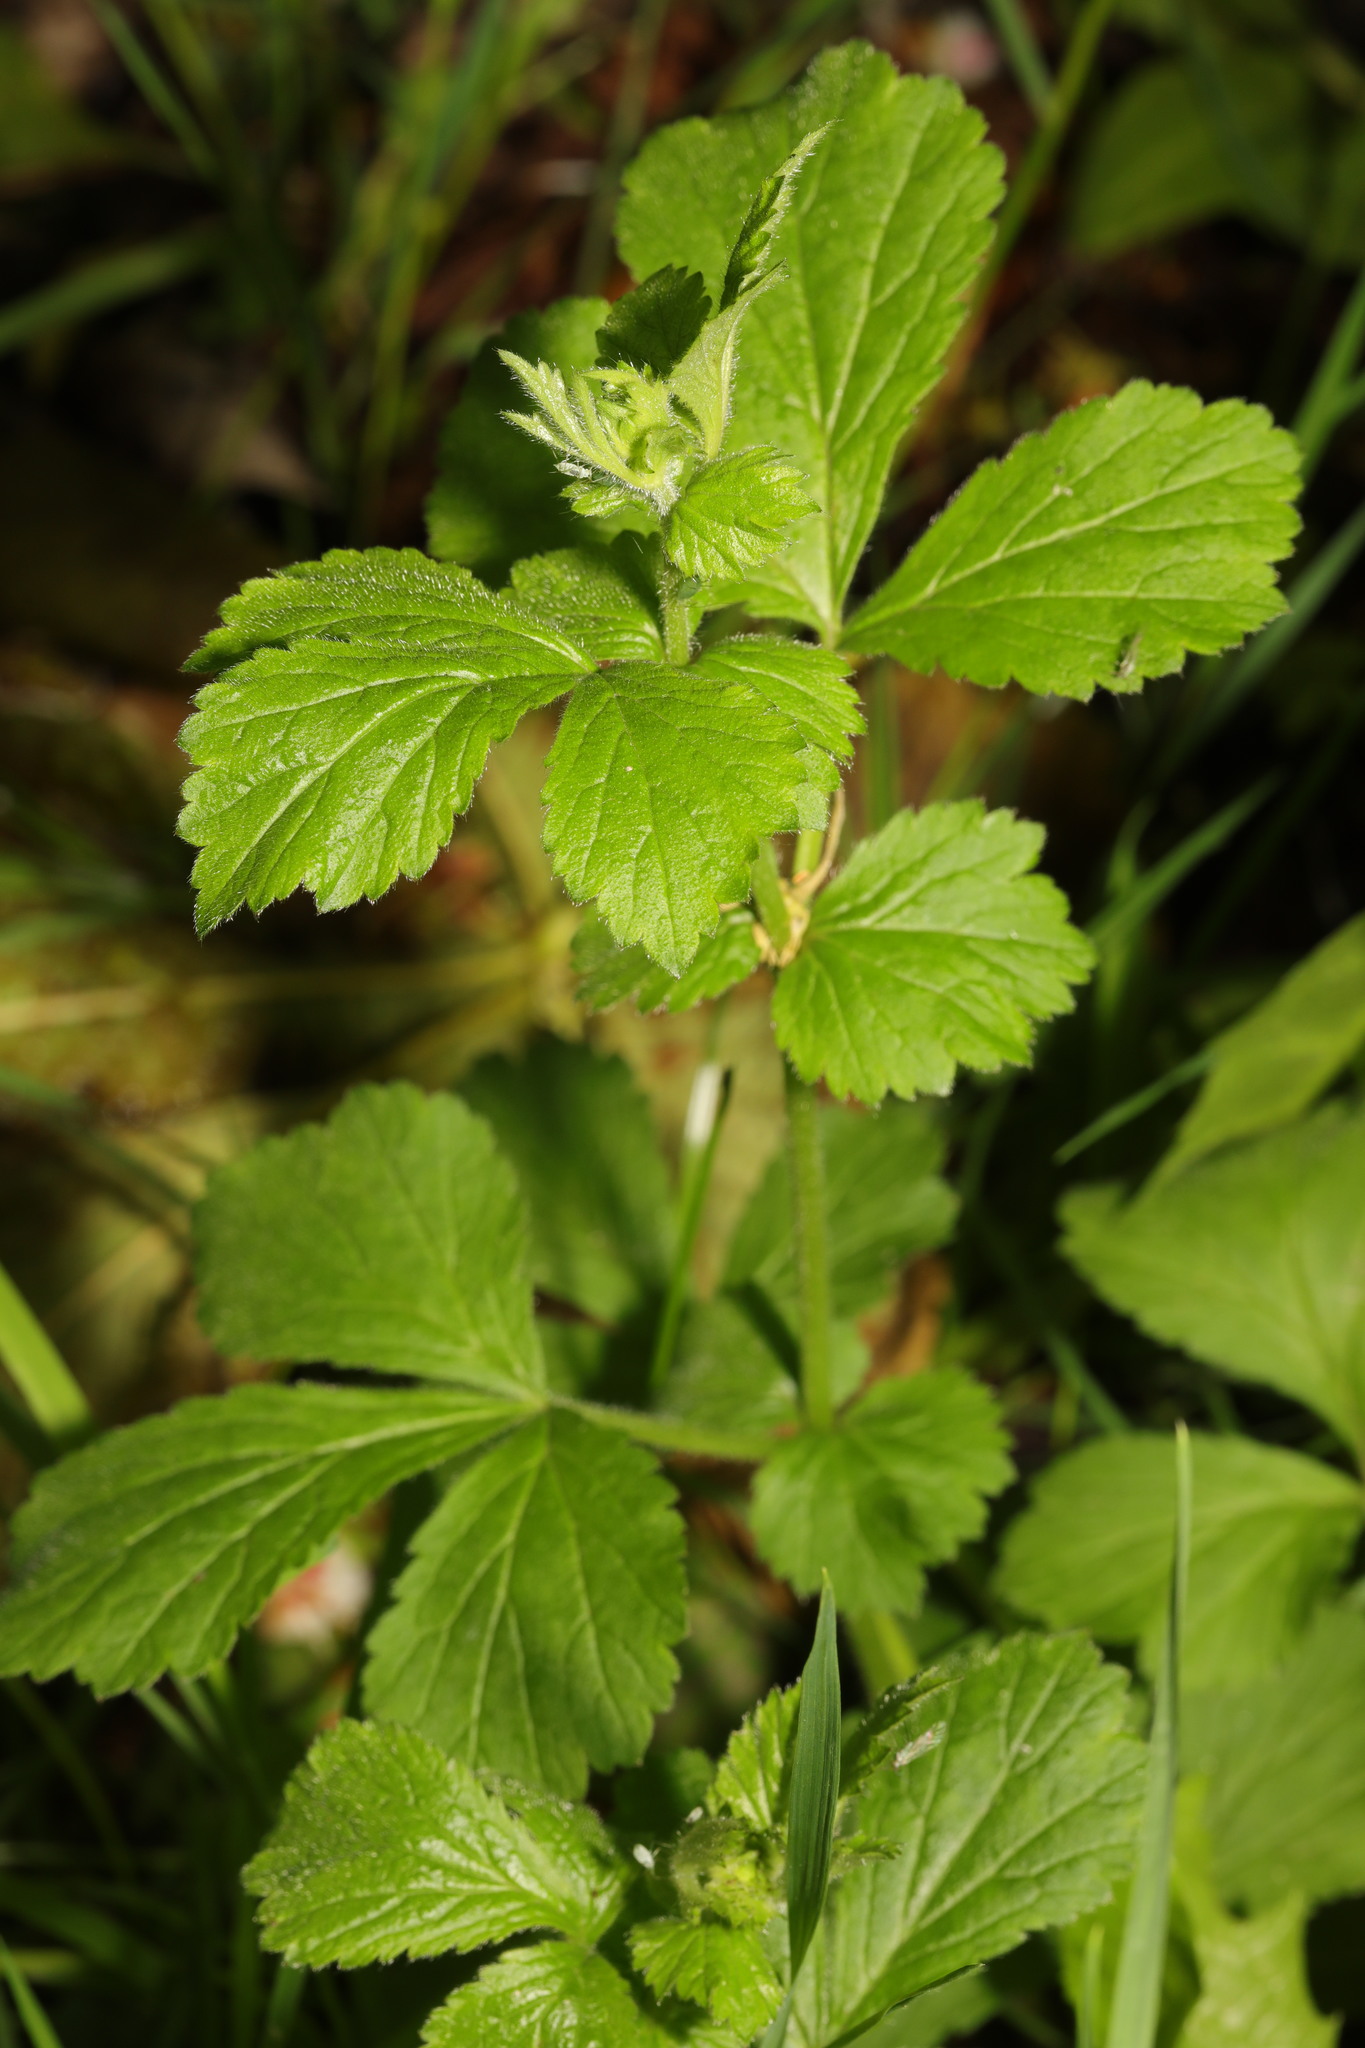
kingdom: Plantae
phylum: Tracheophyta
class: Magnoliopsida
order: Rosales
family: Rosaceae
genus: Geum
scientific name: Geum urbanum
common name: Wood avens
